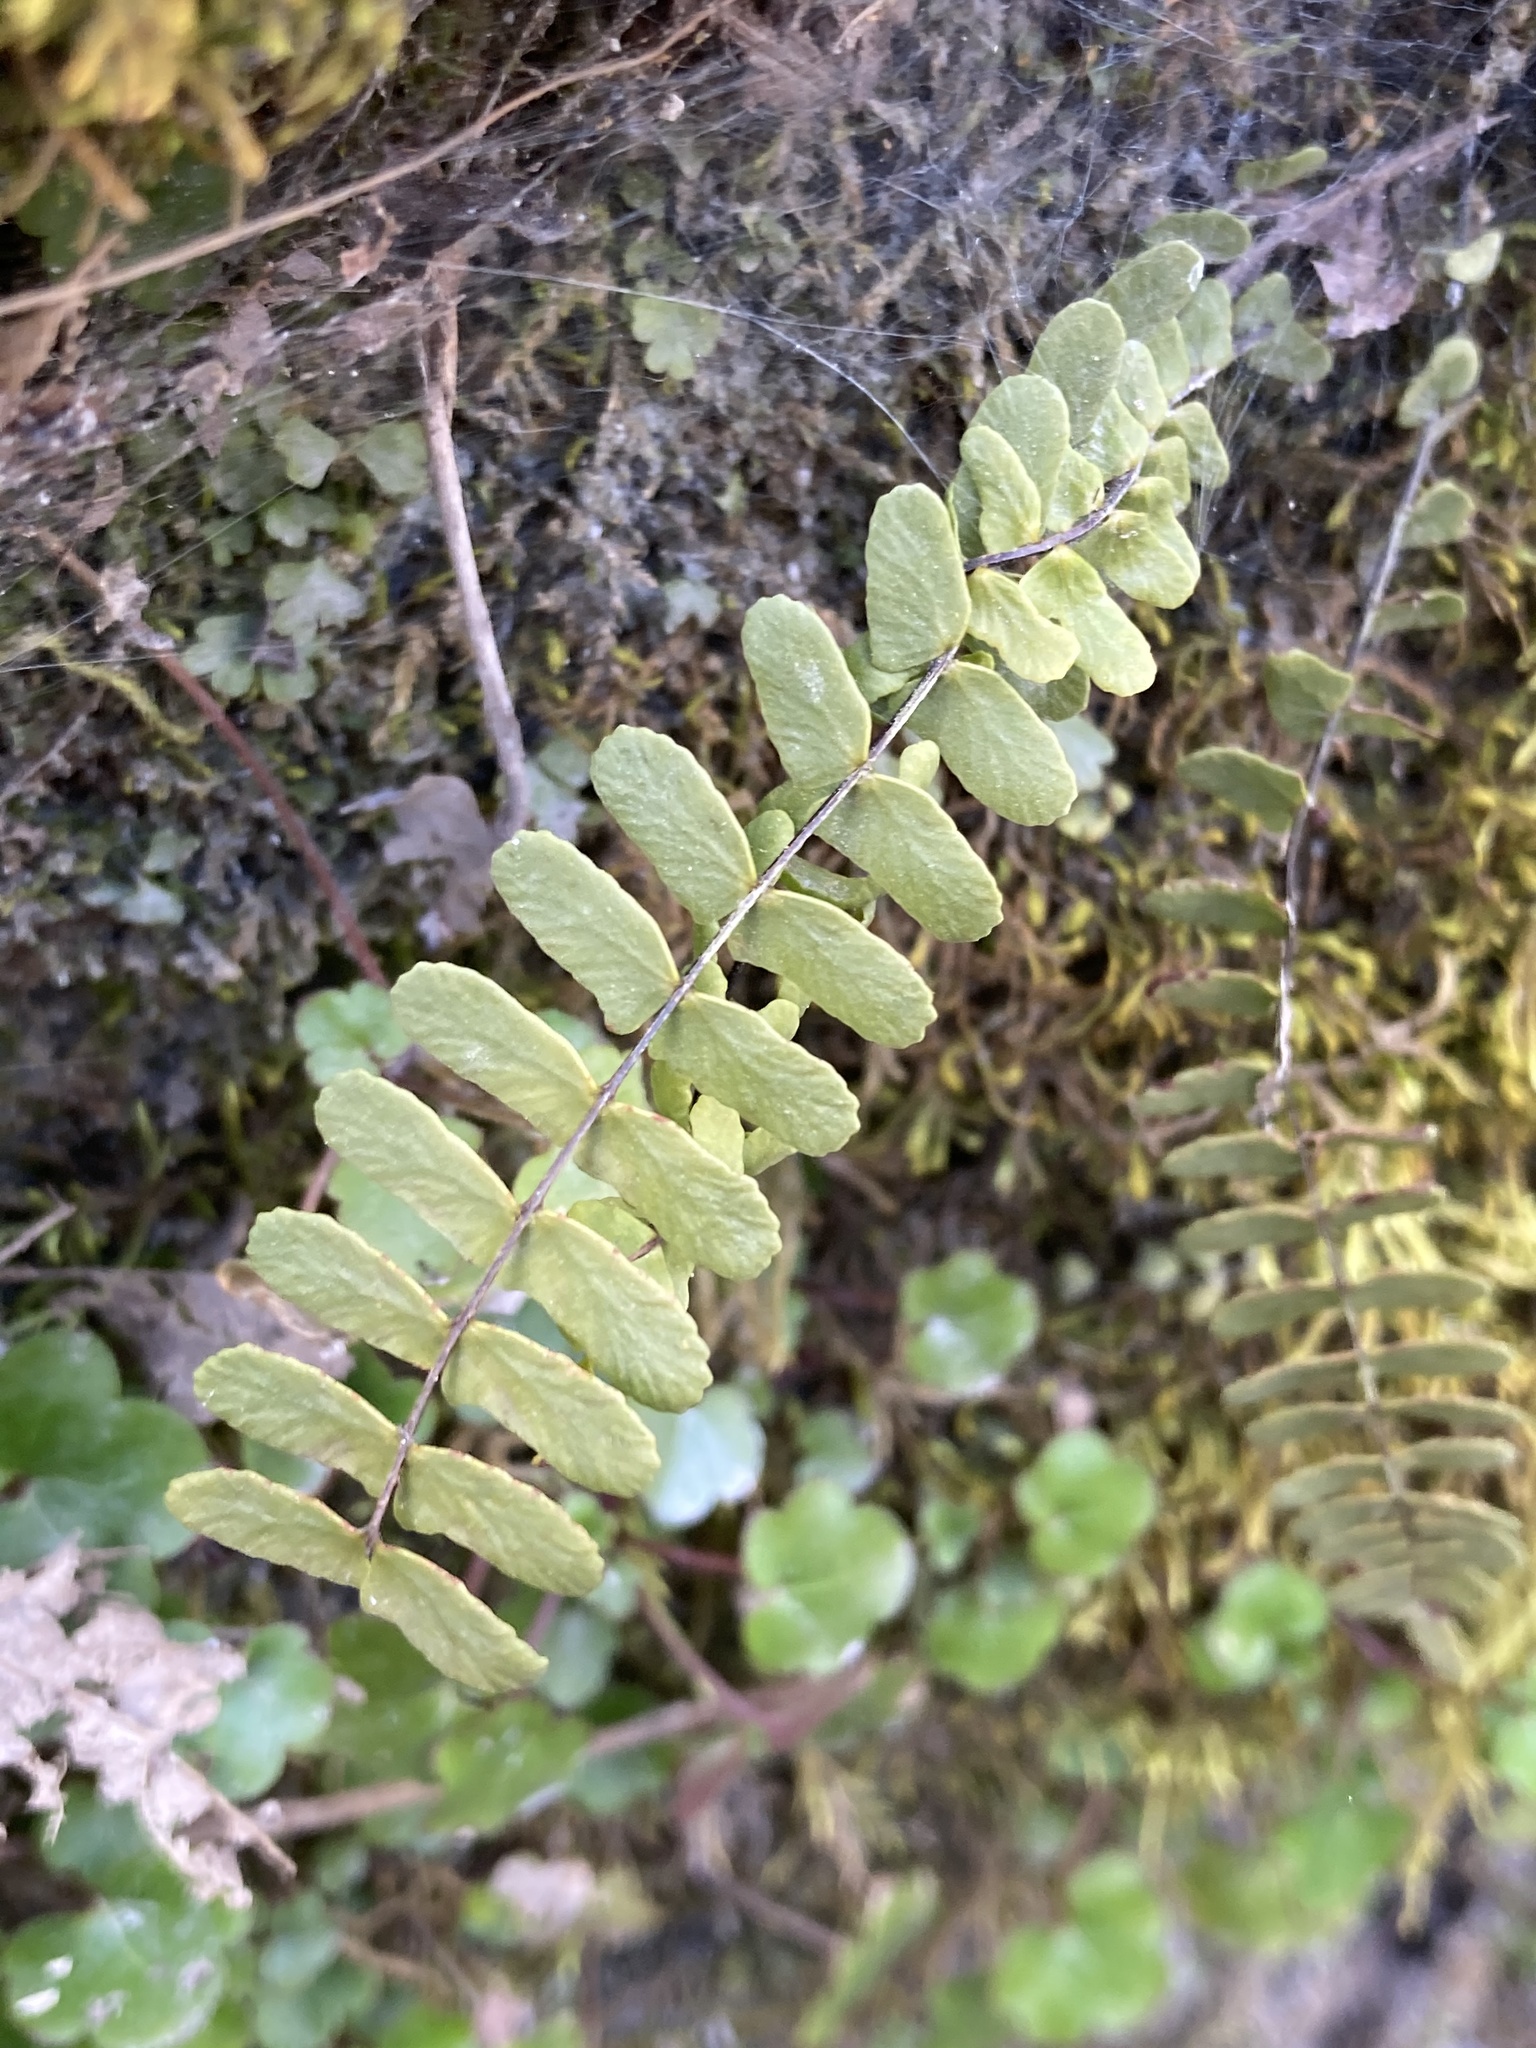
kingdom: Plantae
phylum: Tracheophyta
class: Polypodiopsida
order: Polypodiales
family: Aspleniaceae
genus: Asplenium
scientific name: Asplenium resiliens
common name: Blackstem spleenwort
